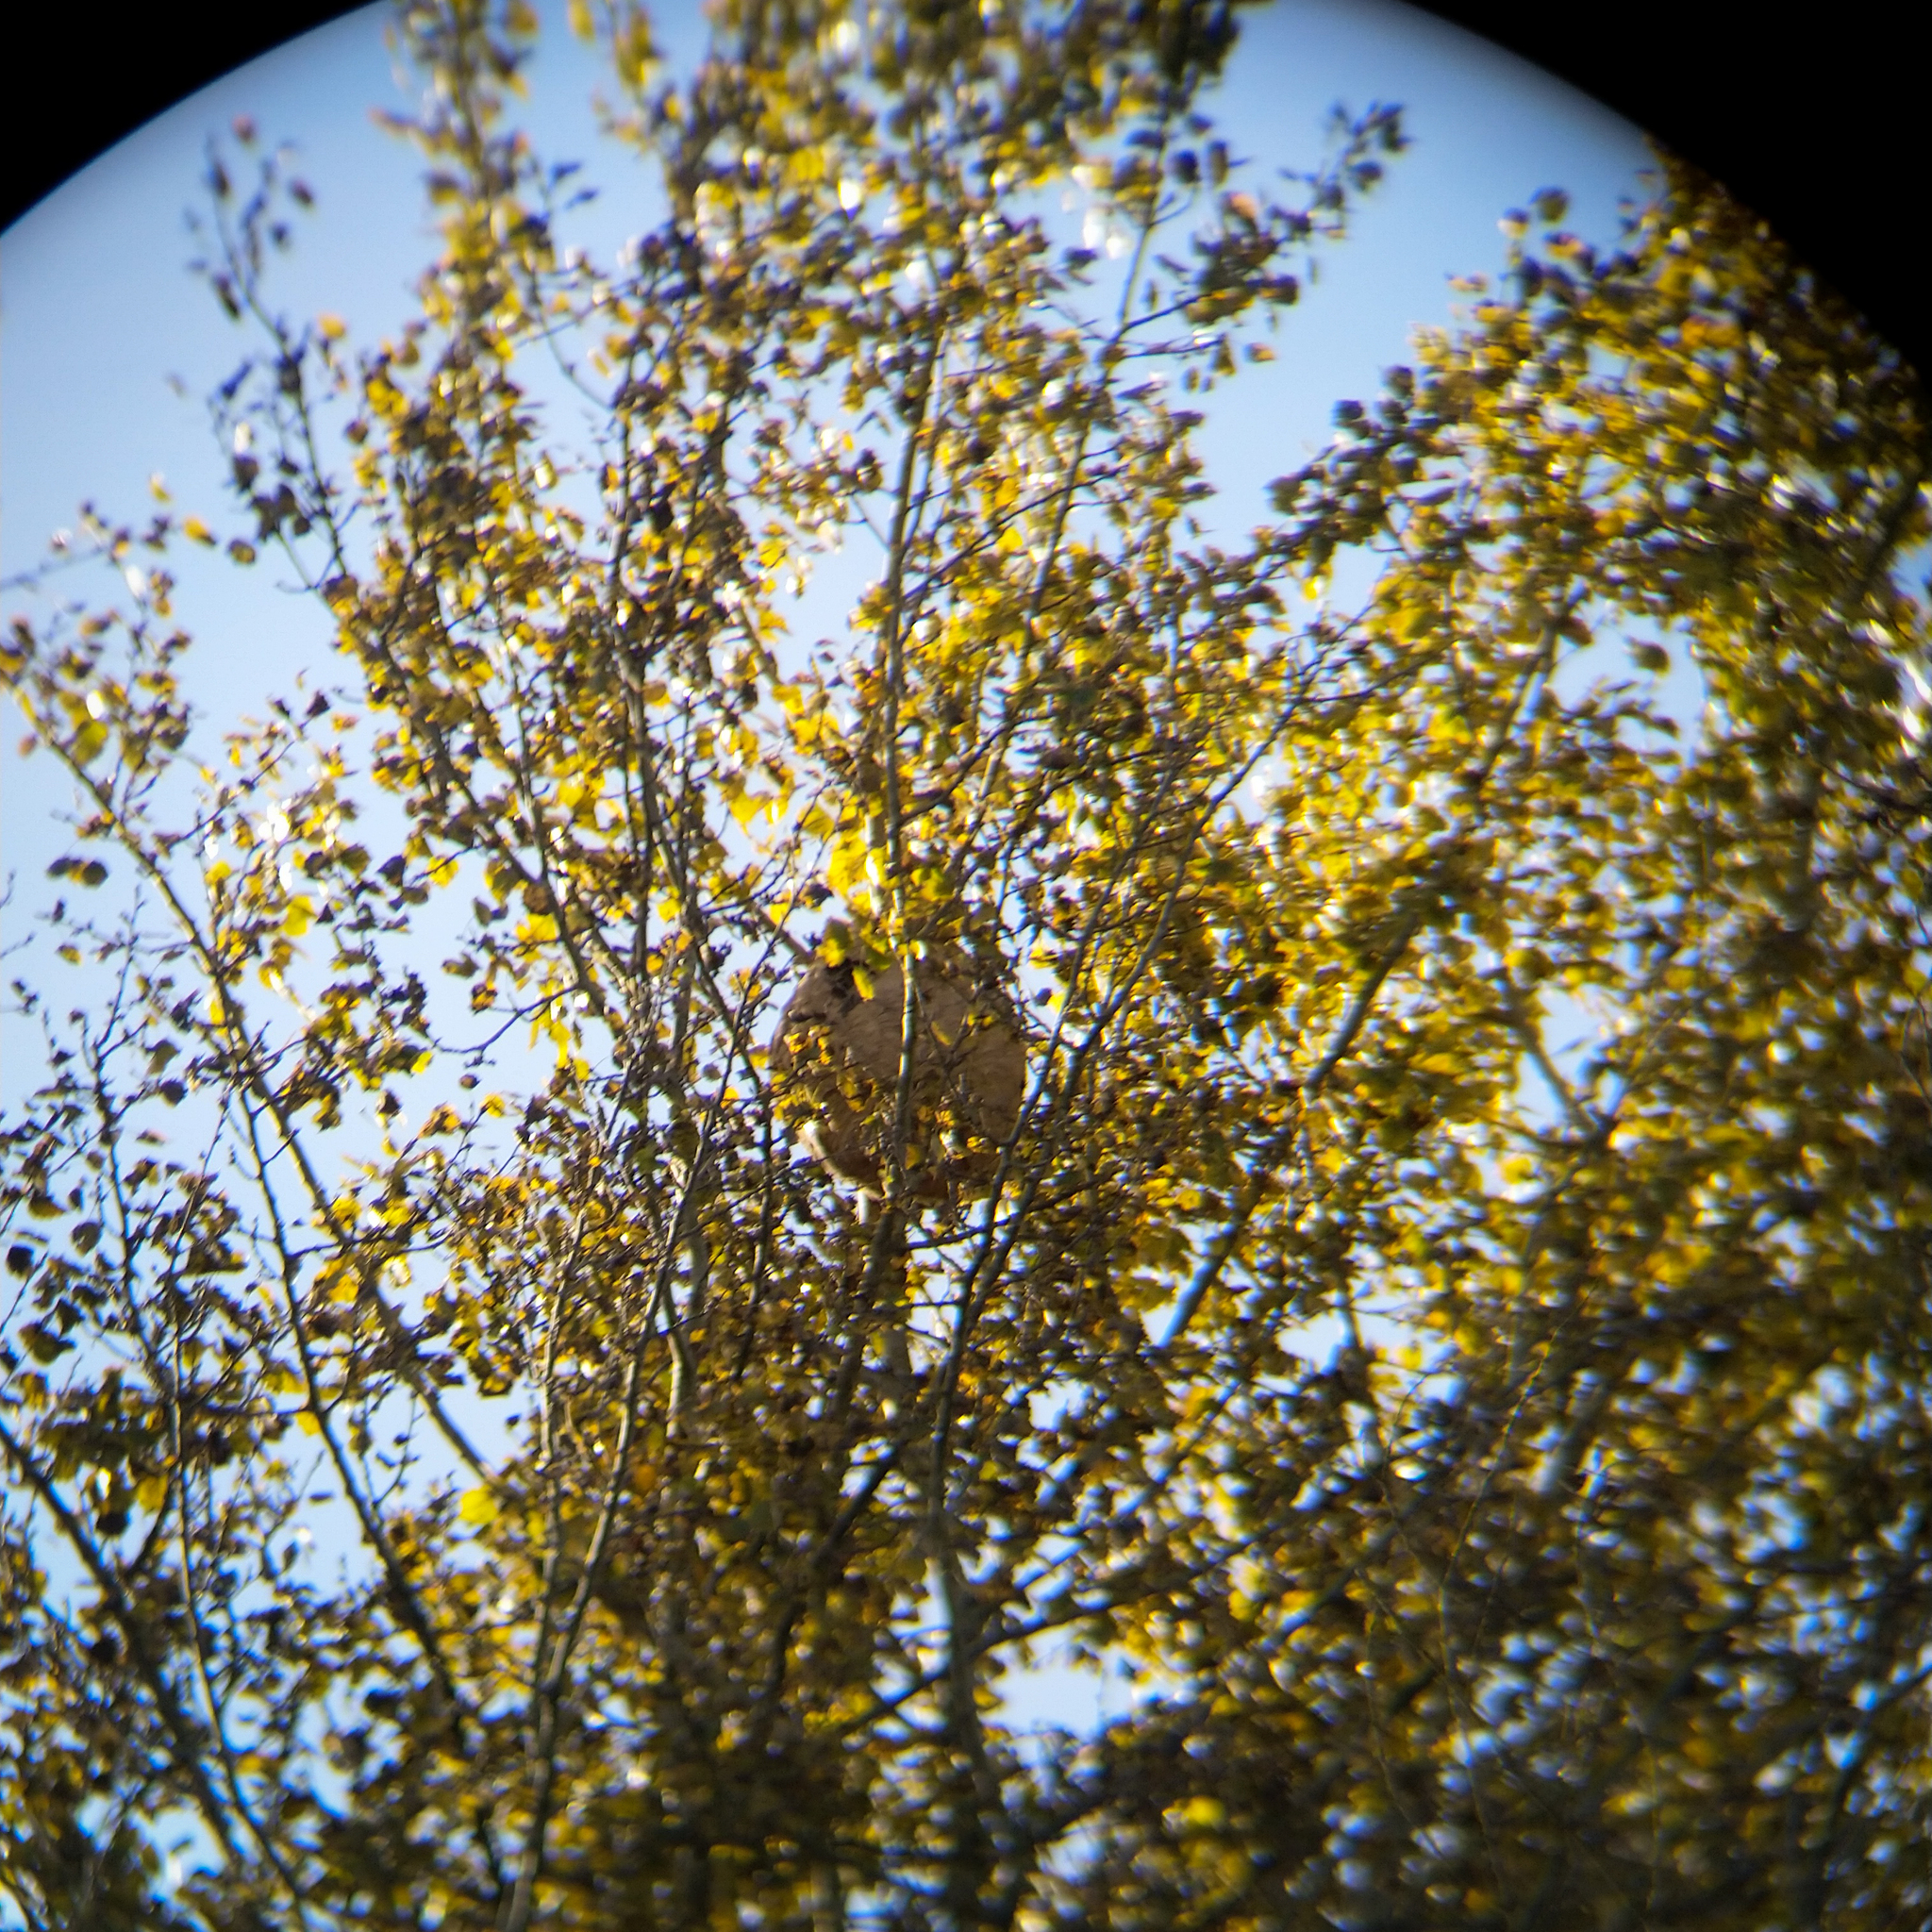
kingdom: Animalia
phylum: Arthropoda
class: Insecta
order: Hymenoptera
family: Vespidae
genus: Vespa
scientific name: Vespa velutina
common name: Asian hornet
